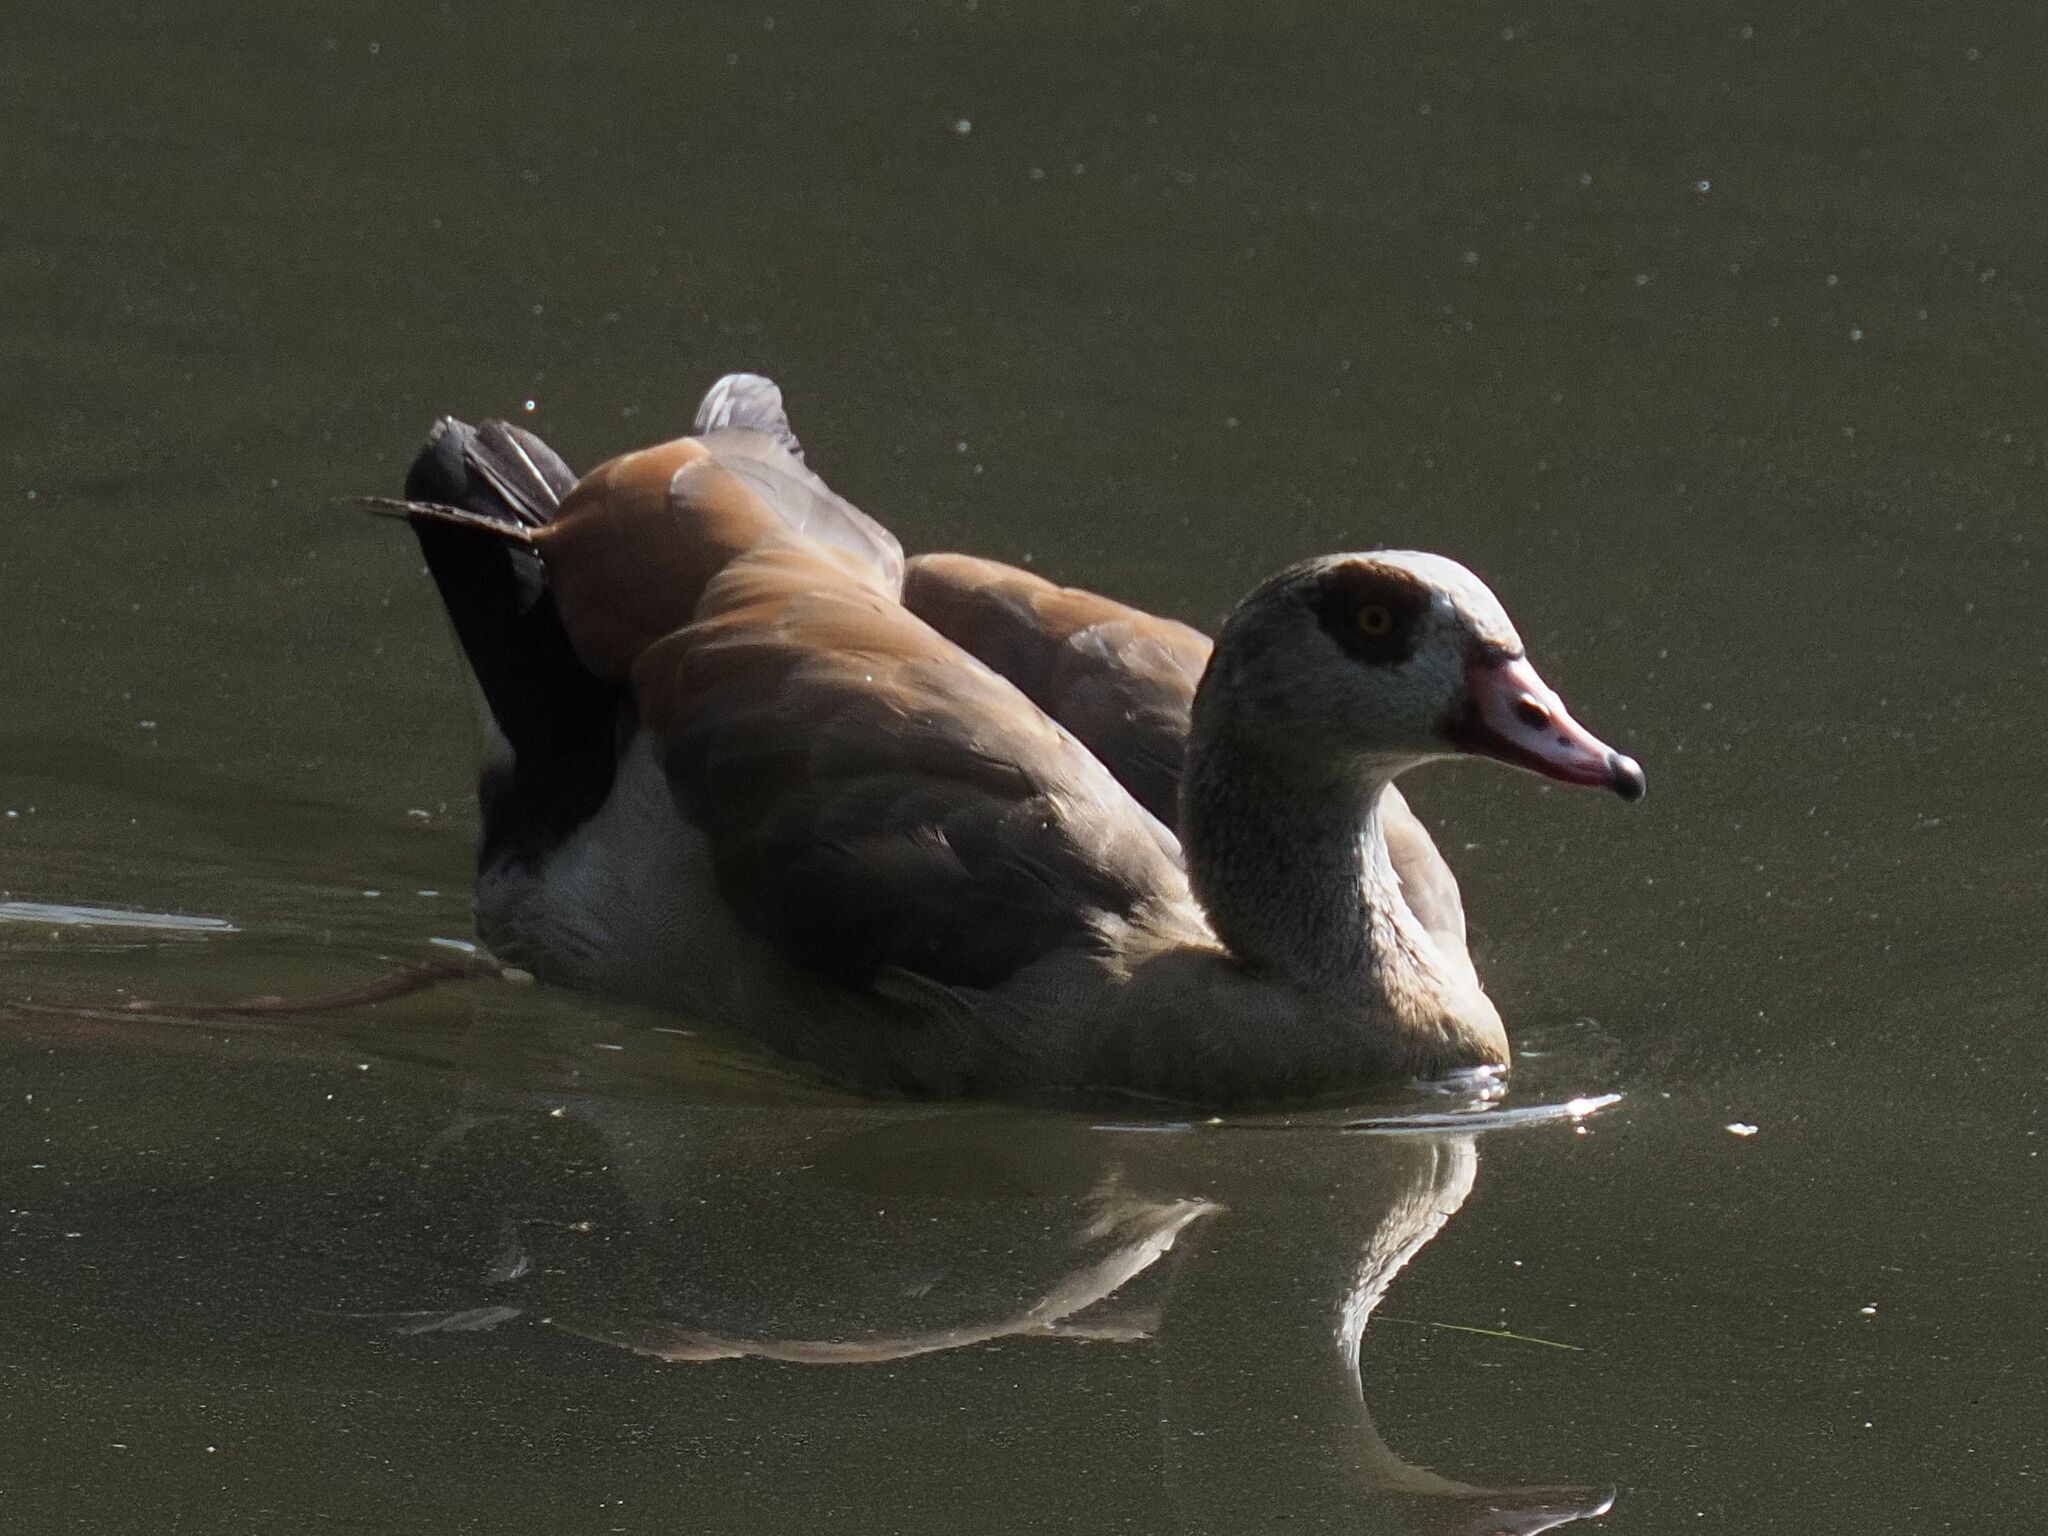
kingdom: Animalia
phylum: Chordata
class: Aves
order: Anseriformes
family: Anatidae
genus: Alopochen
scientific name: Alopochen aegyptiaca
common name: Egyptian goose
